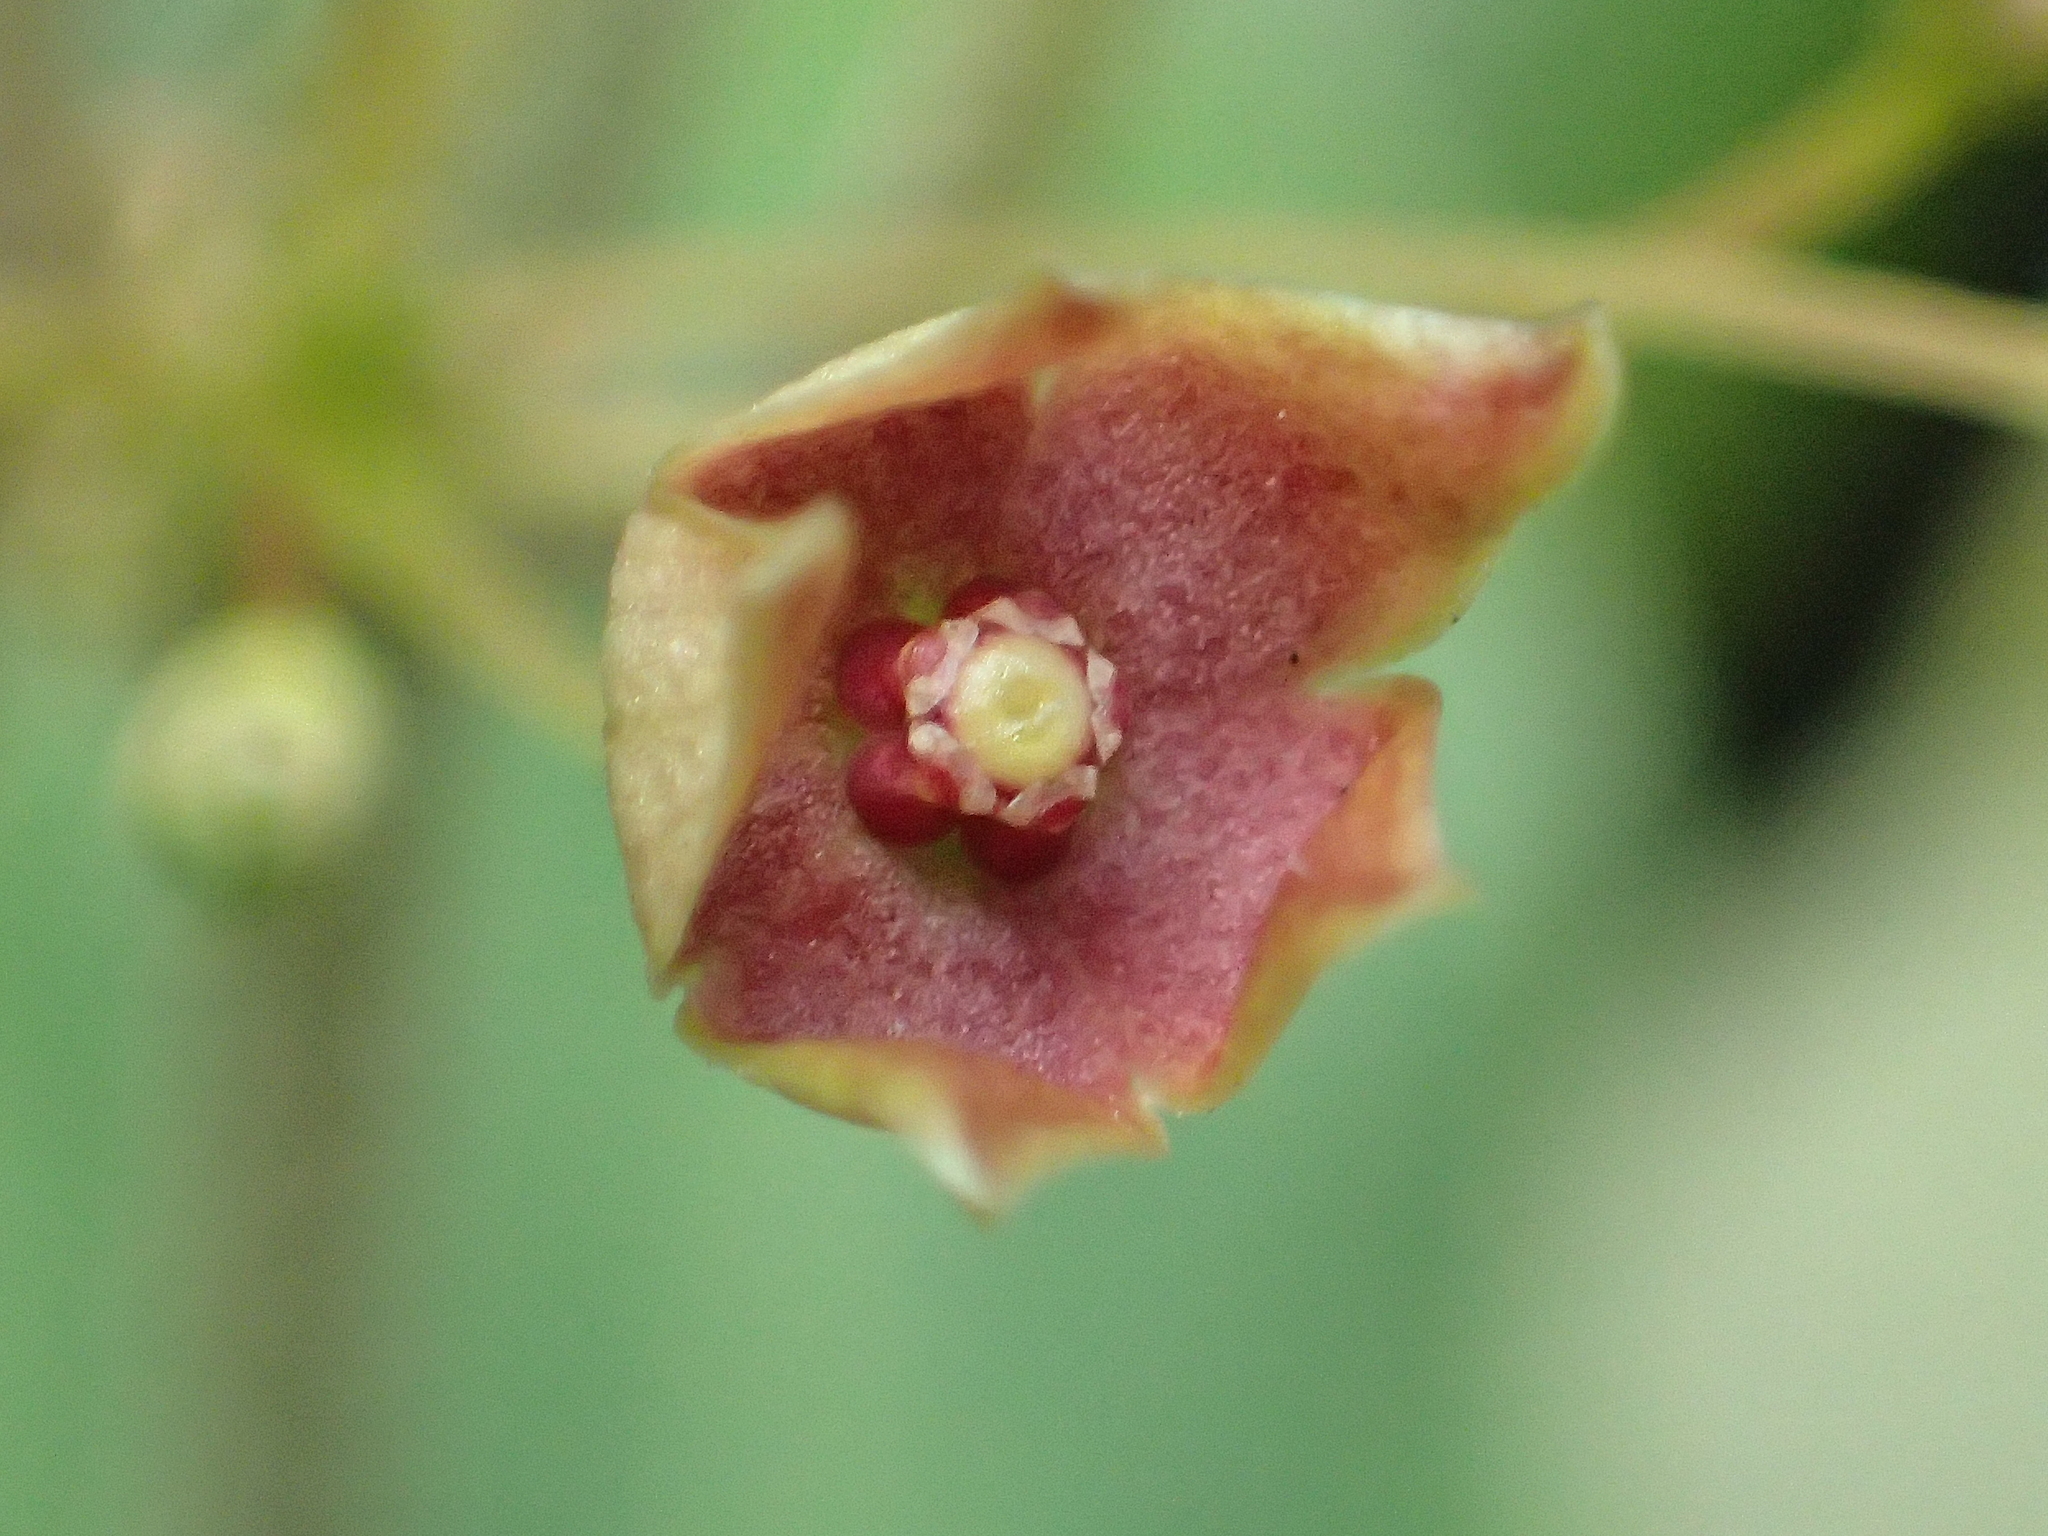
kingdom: Plantae
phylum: Tracheophyta
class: Magnoliopsida
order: Gentianales
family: Apocynaceae
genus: Vincetoxicum
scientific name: Vincetoxicum hirsutum
